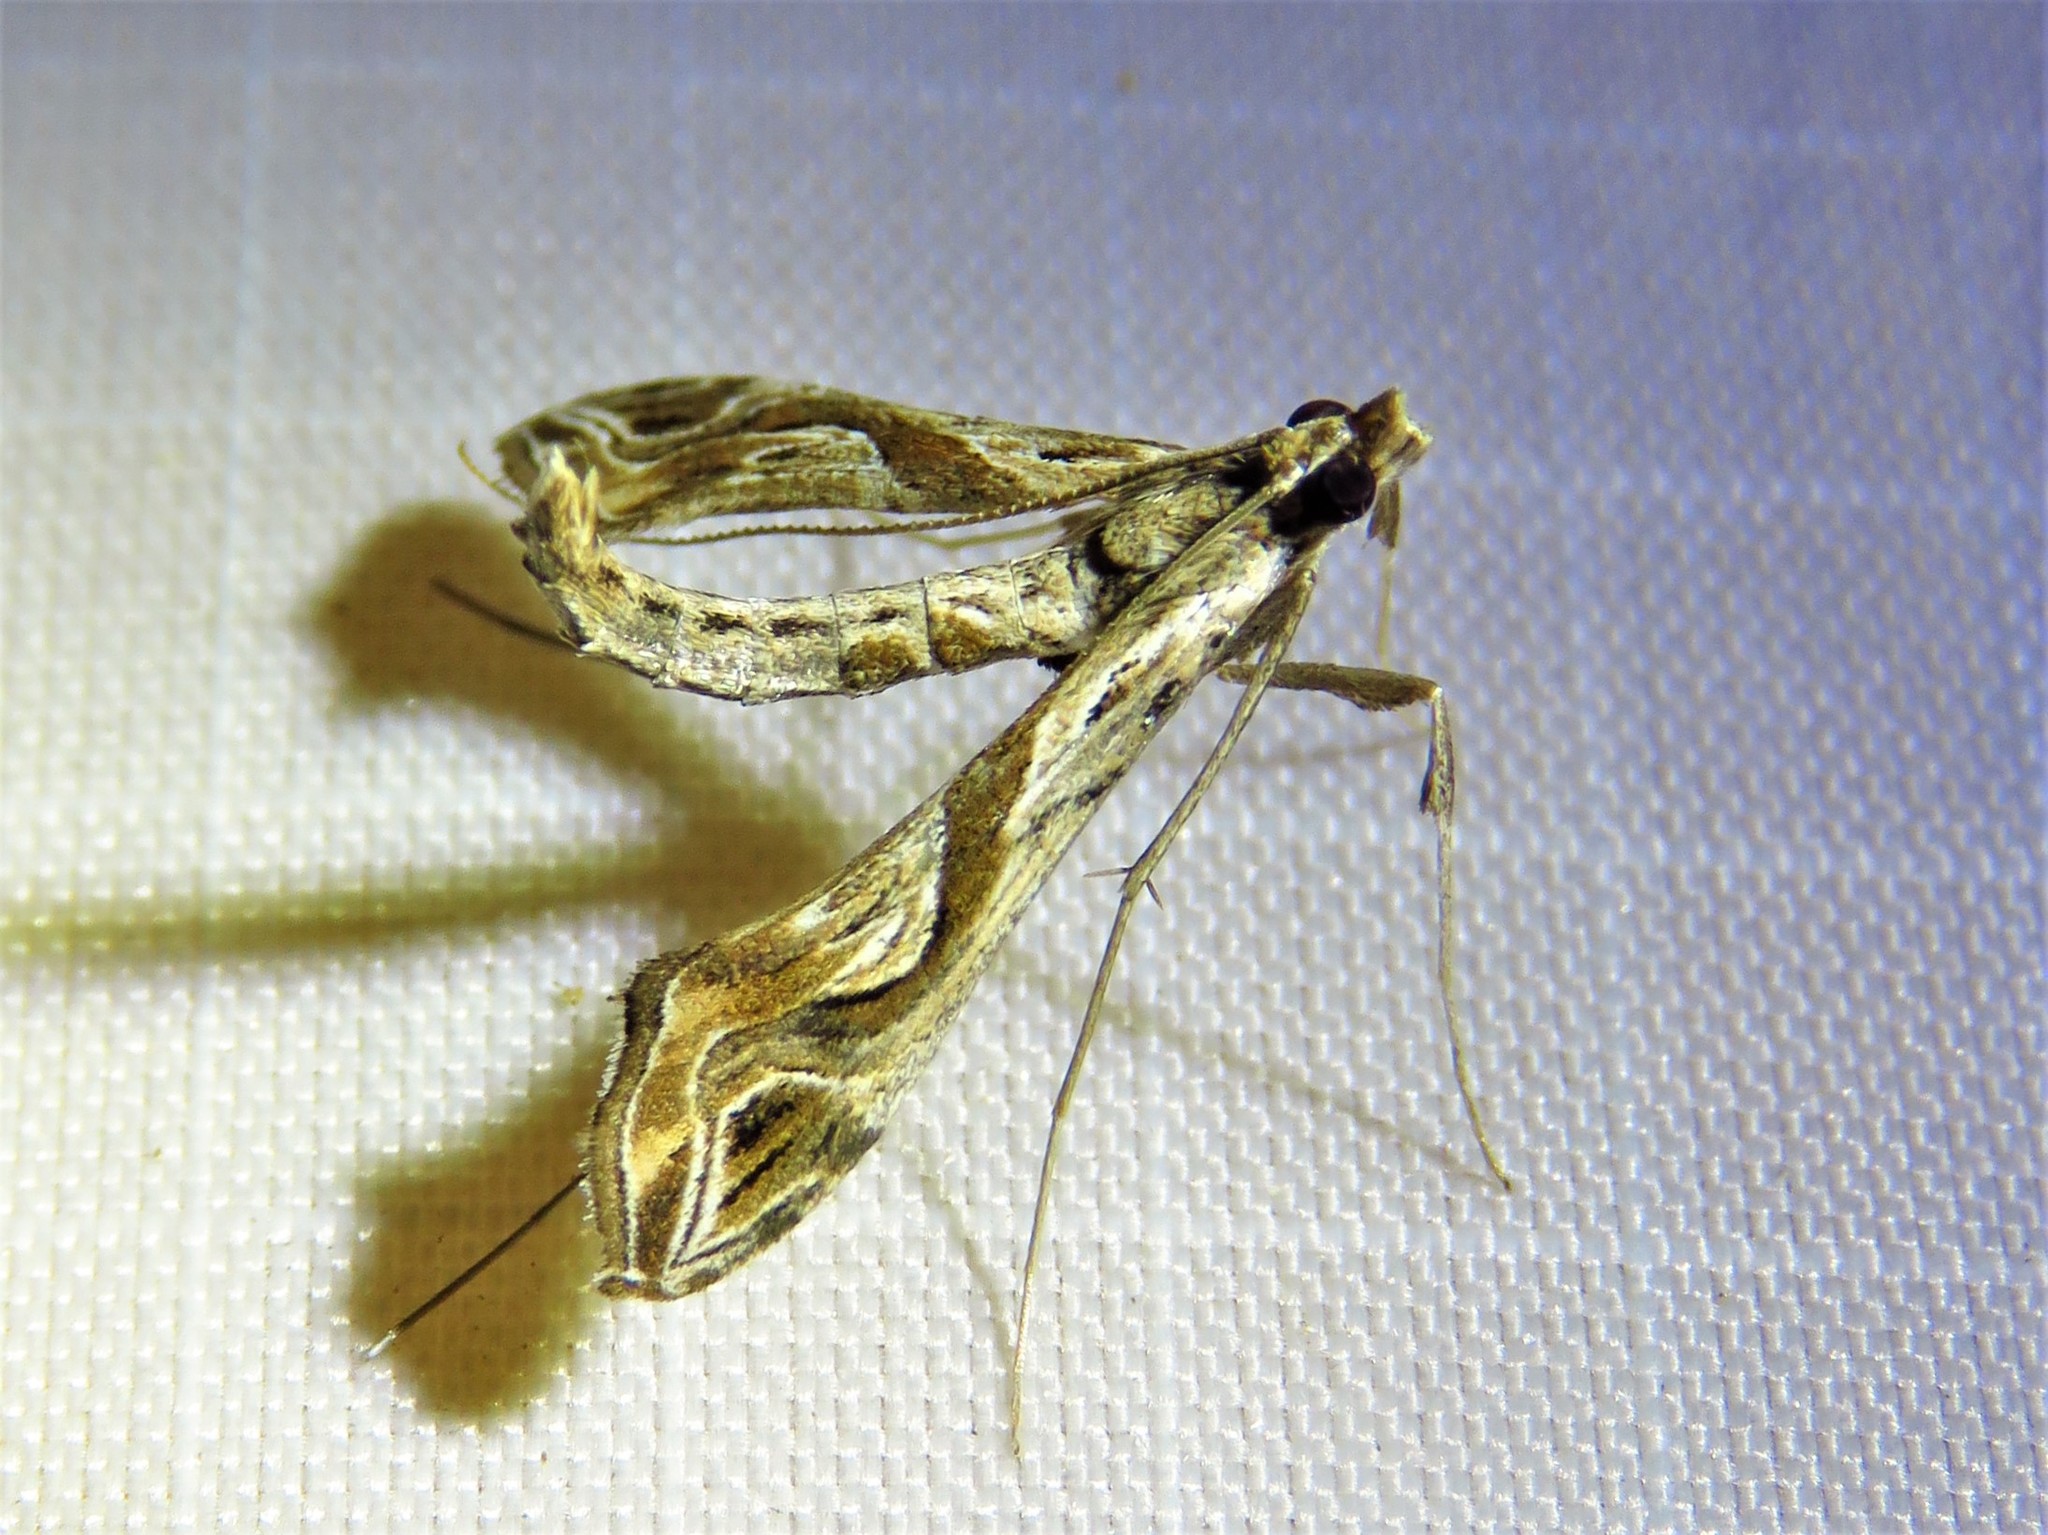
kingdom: Animalia
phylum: Arthropoda
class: Insecta
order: Lepidoptera
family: Crambidae
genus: Lineodes
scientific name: Lineodes integra
